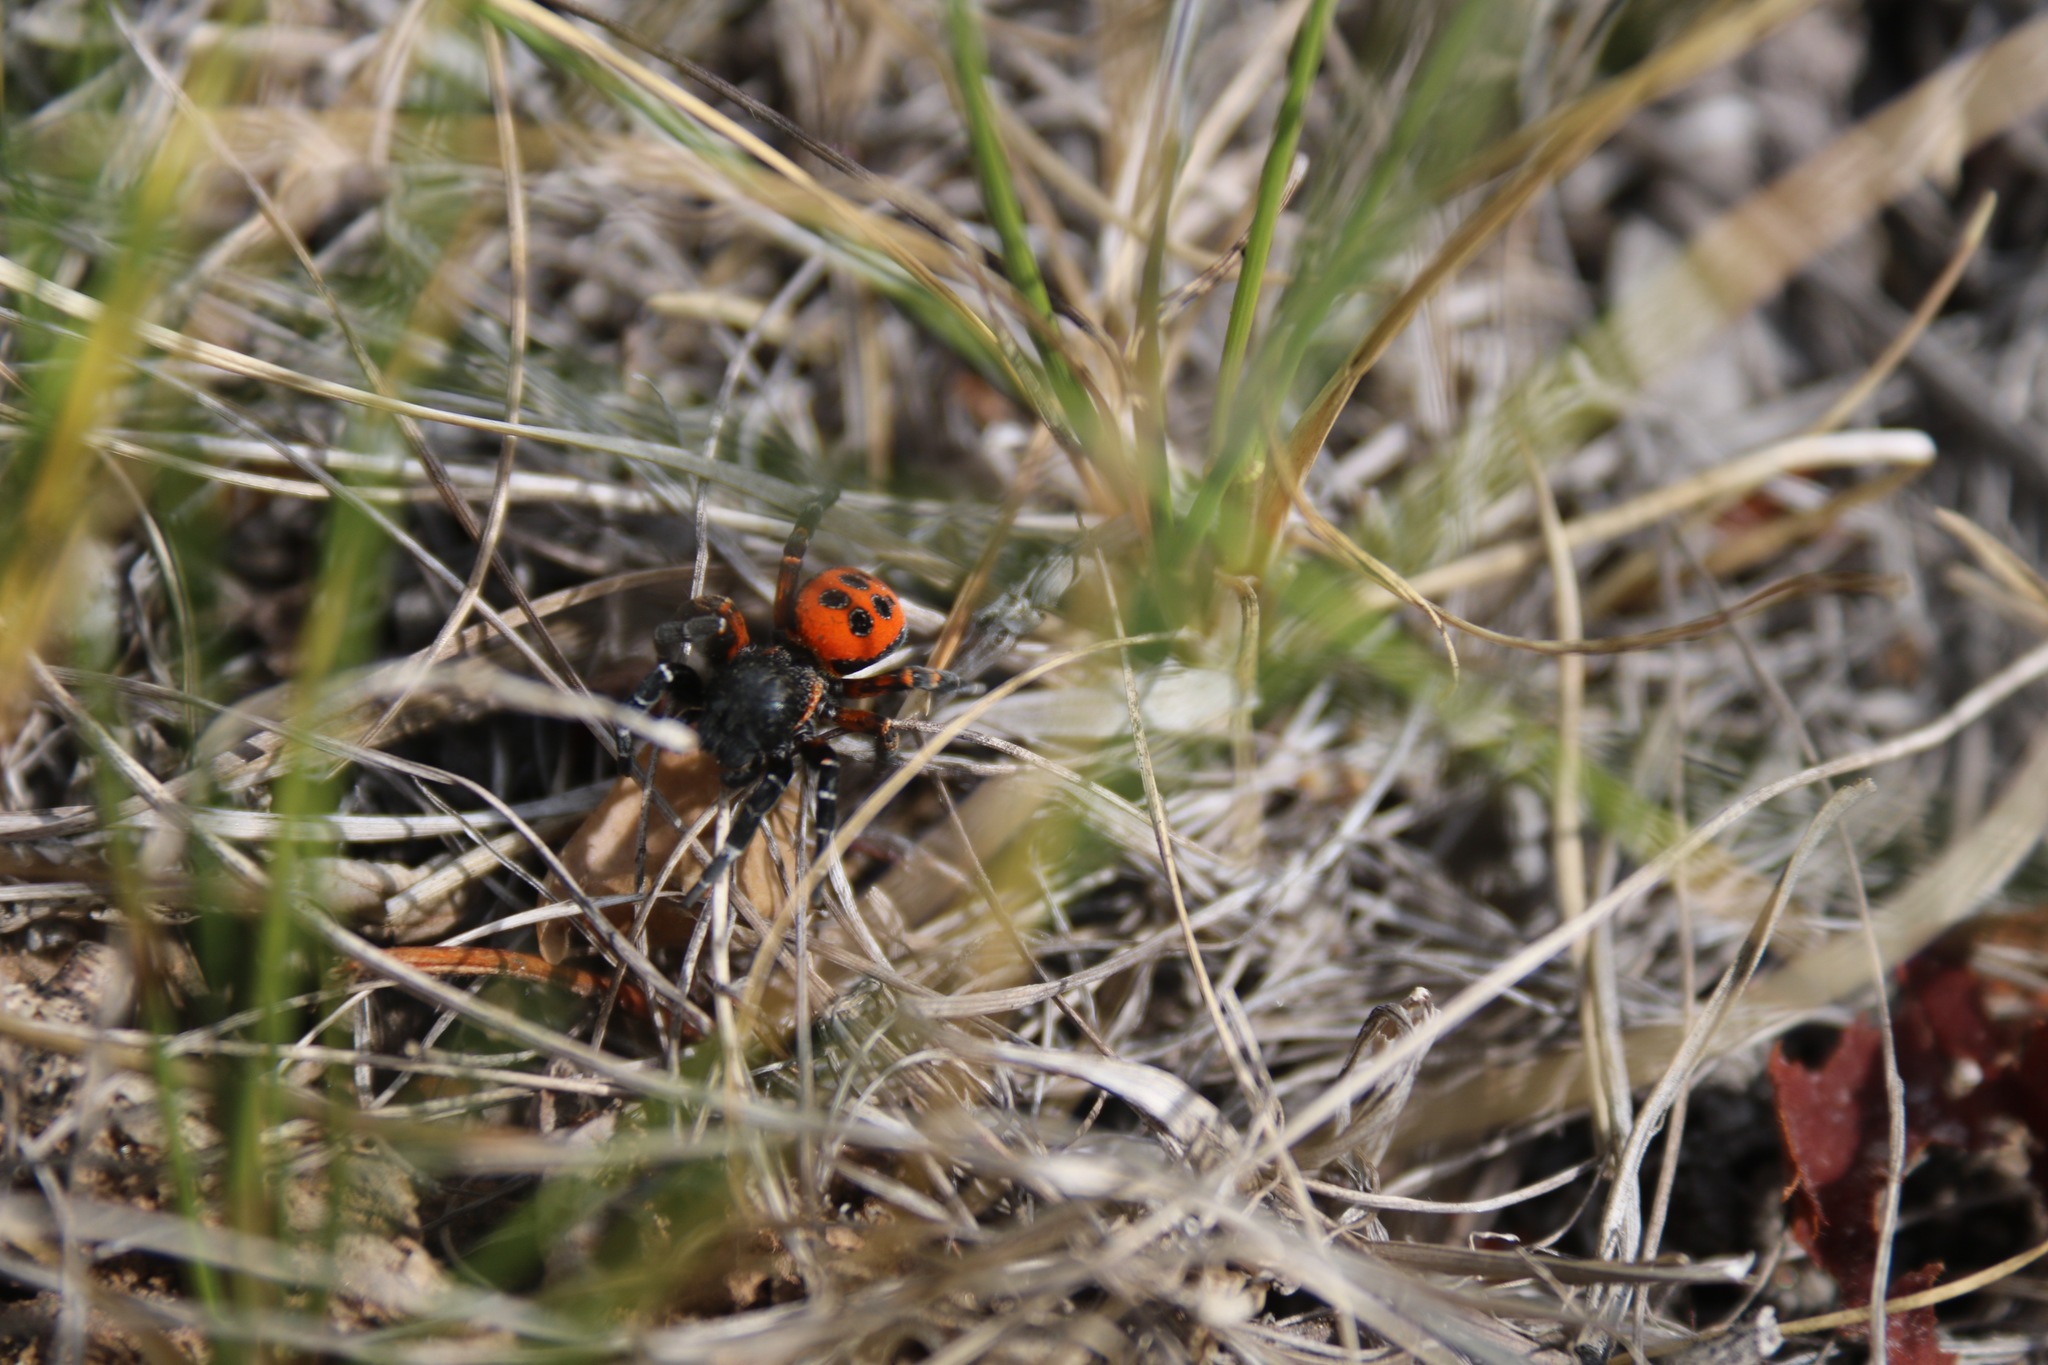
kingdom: Animalia
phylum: Arthropoda
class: Arachnida
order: Araneae
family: Eresidae
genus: Eresus
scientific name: Eresus kollari
